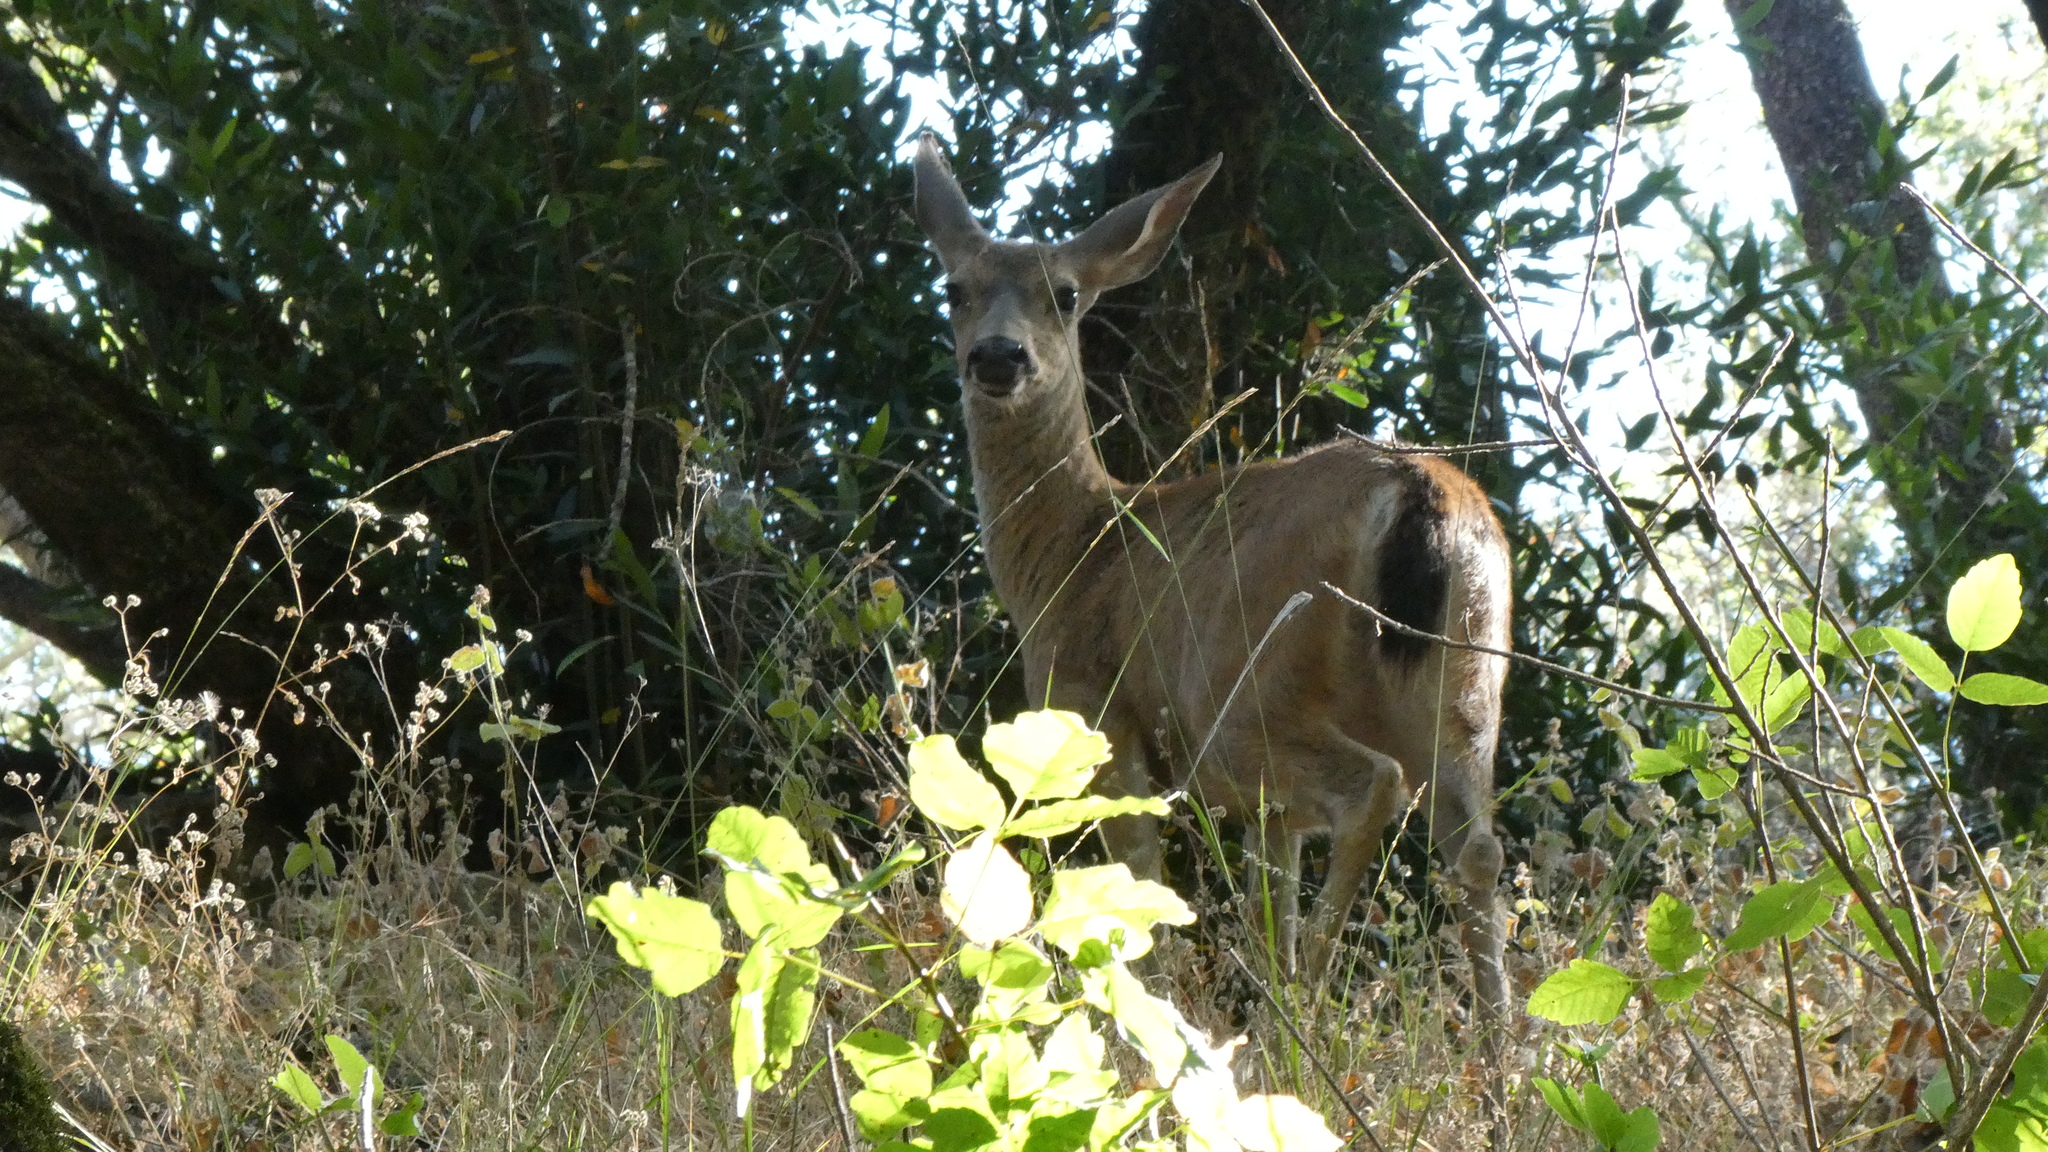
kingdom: Animalia
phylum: Chordata
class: Mammalia
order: Artiodactyla
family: Cervidae
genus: Odocoileus
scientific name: Odocoileus hemionus
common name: Mule deer
